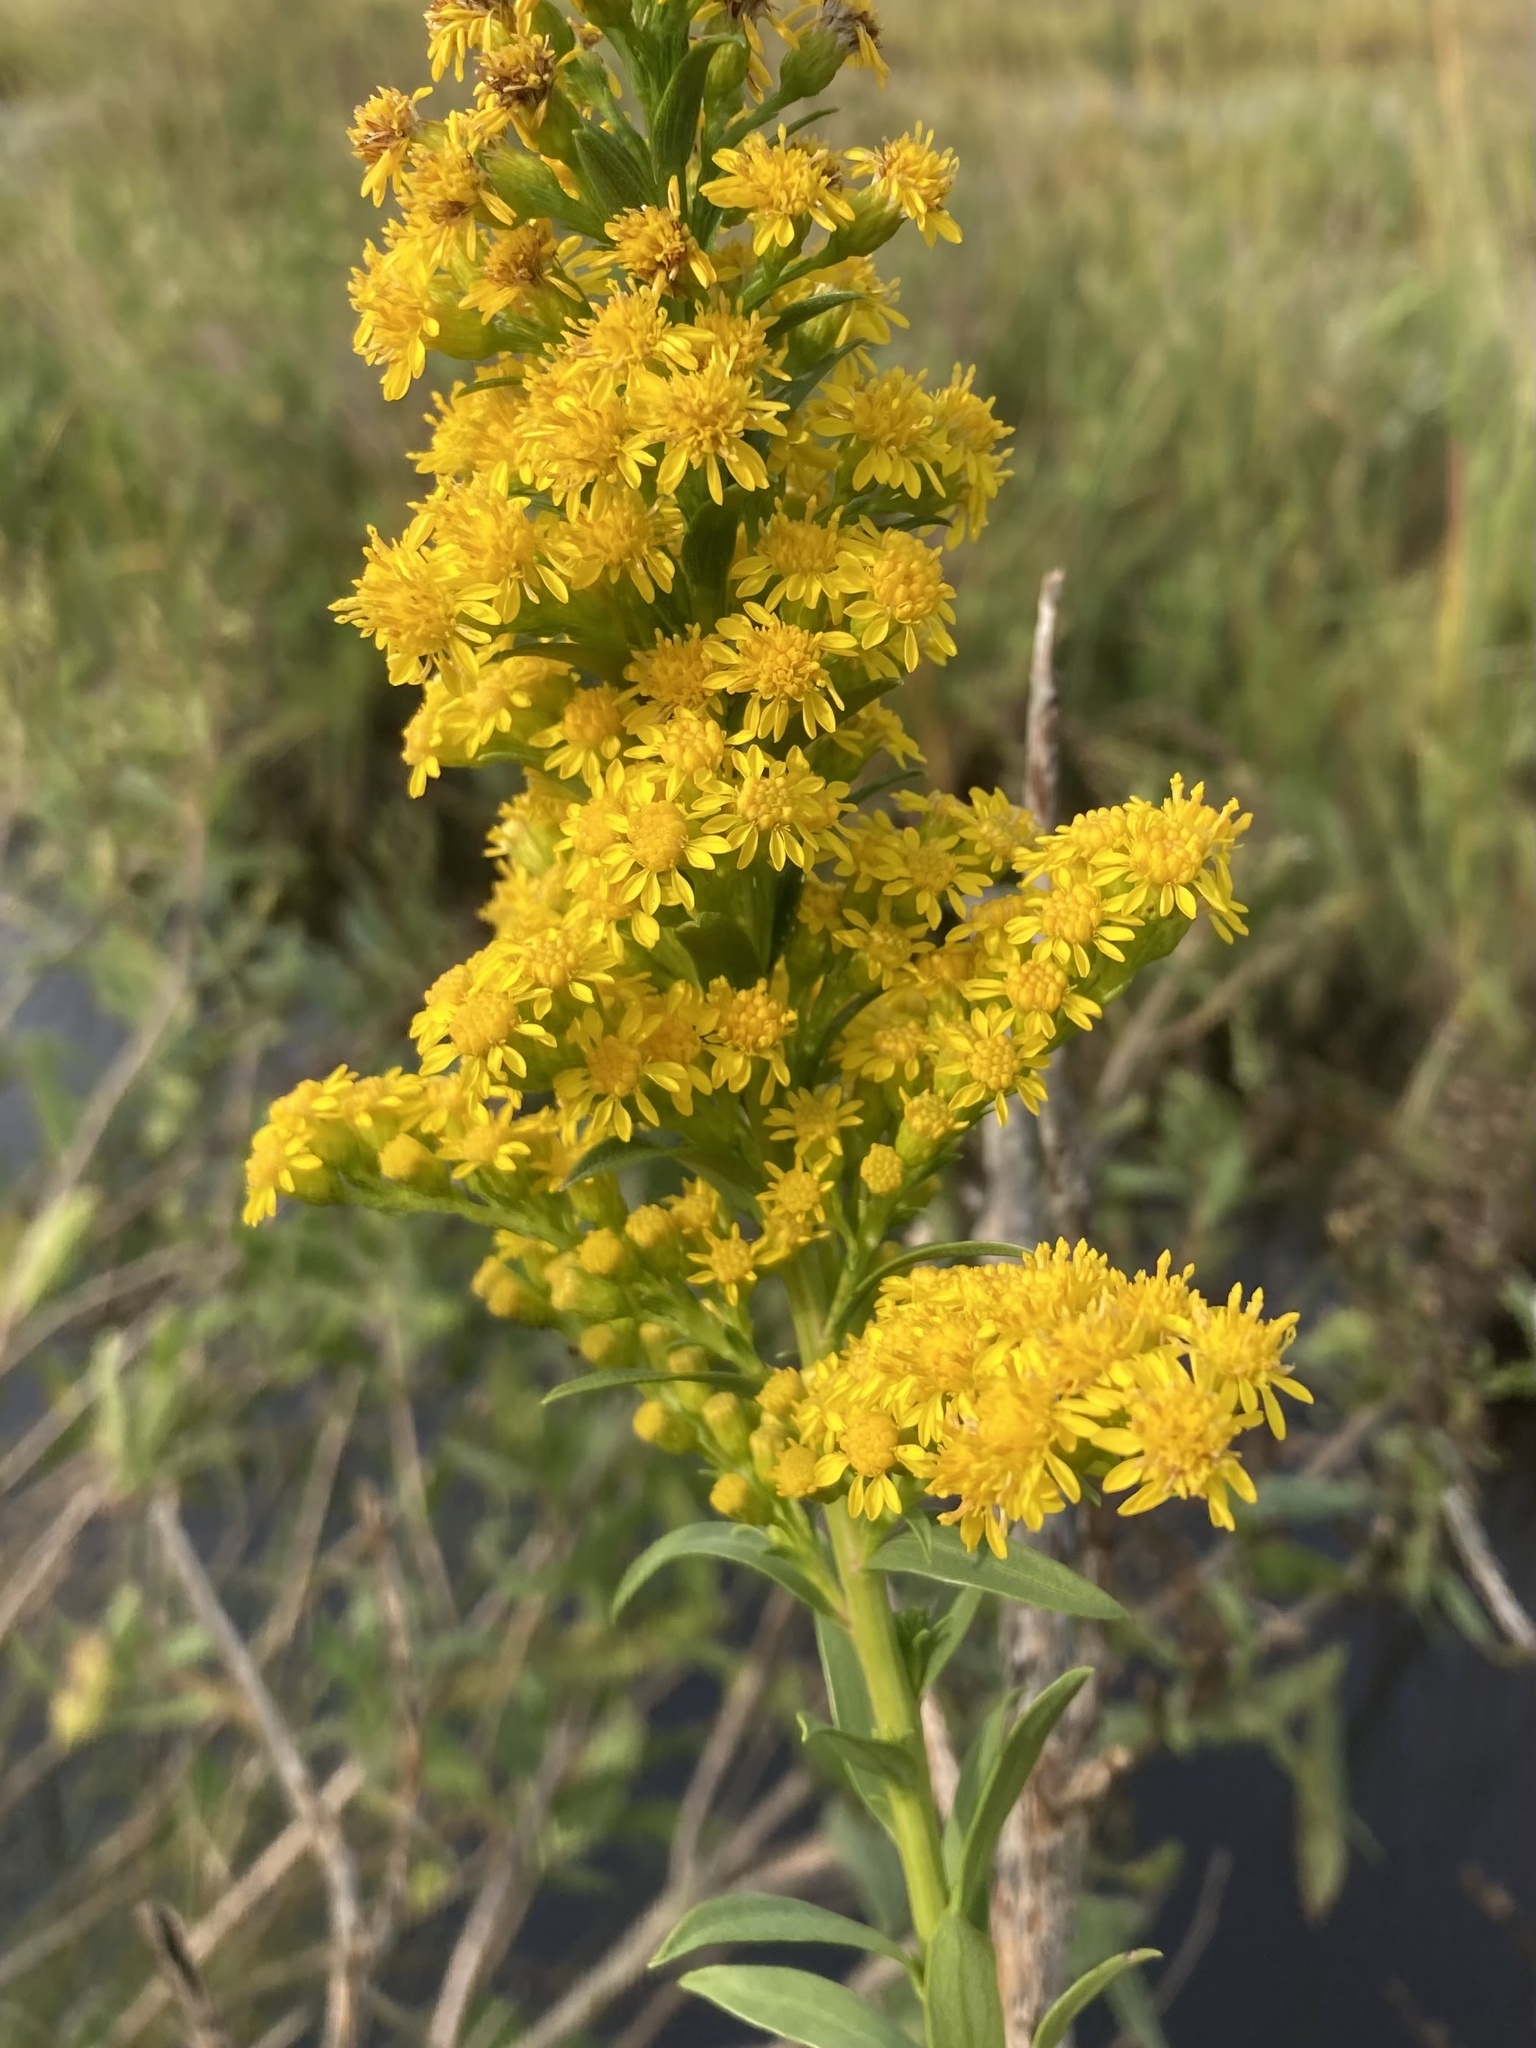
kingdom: Plantae
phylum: Tracheophyta
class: Magnoliopsida
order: Asterales
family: Asteraceae
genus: Solidago
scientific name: Solidago sempervirens
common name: Salt-marsh goldenrod
